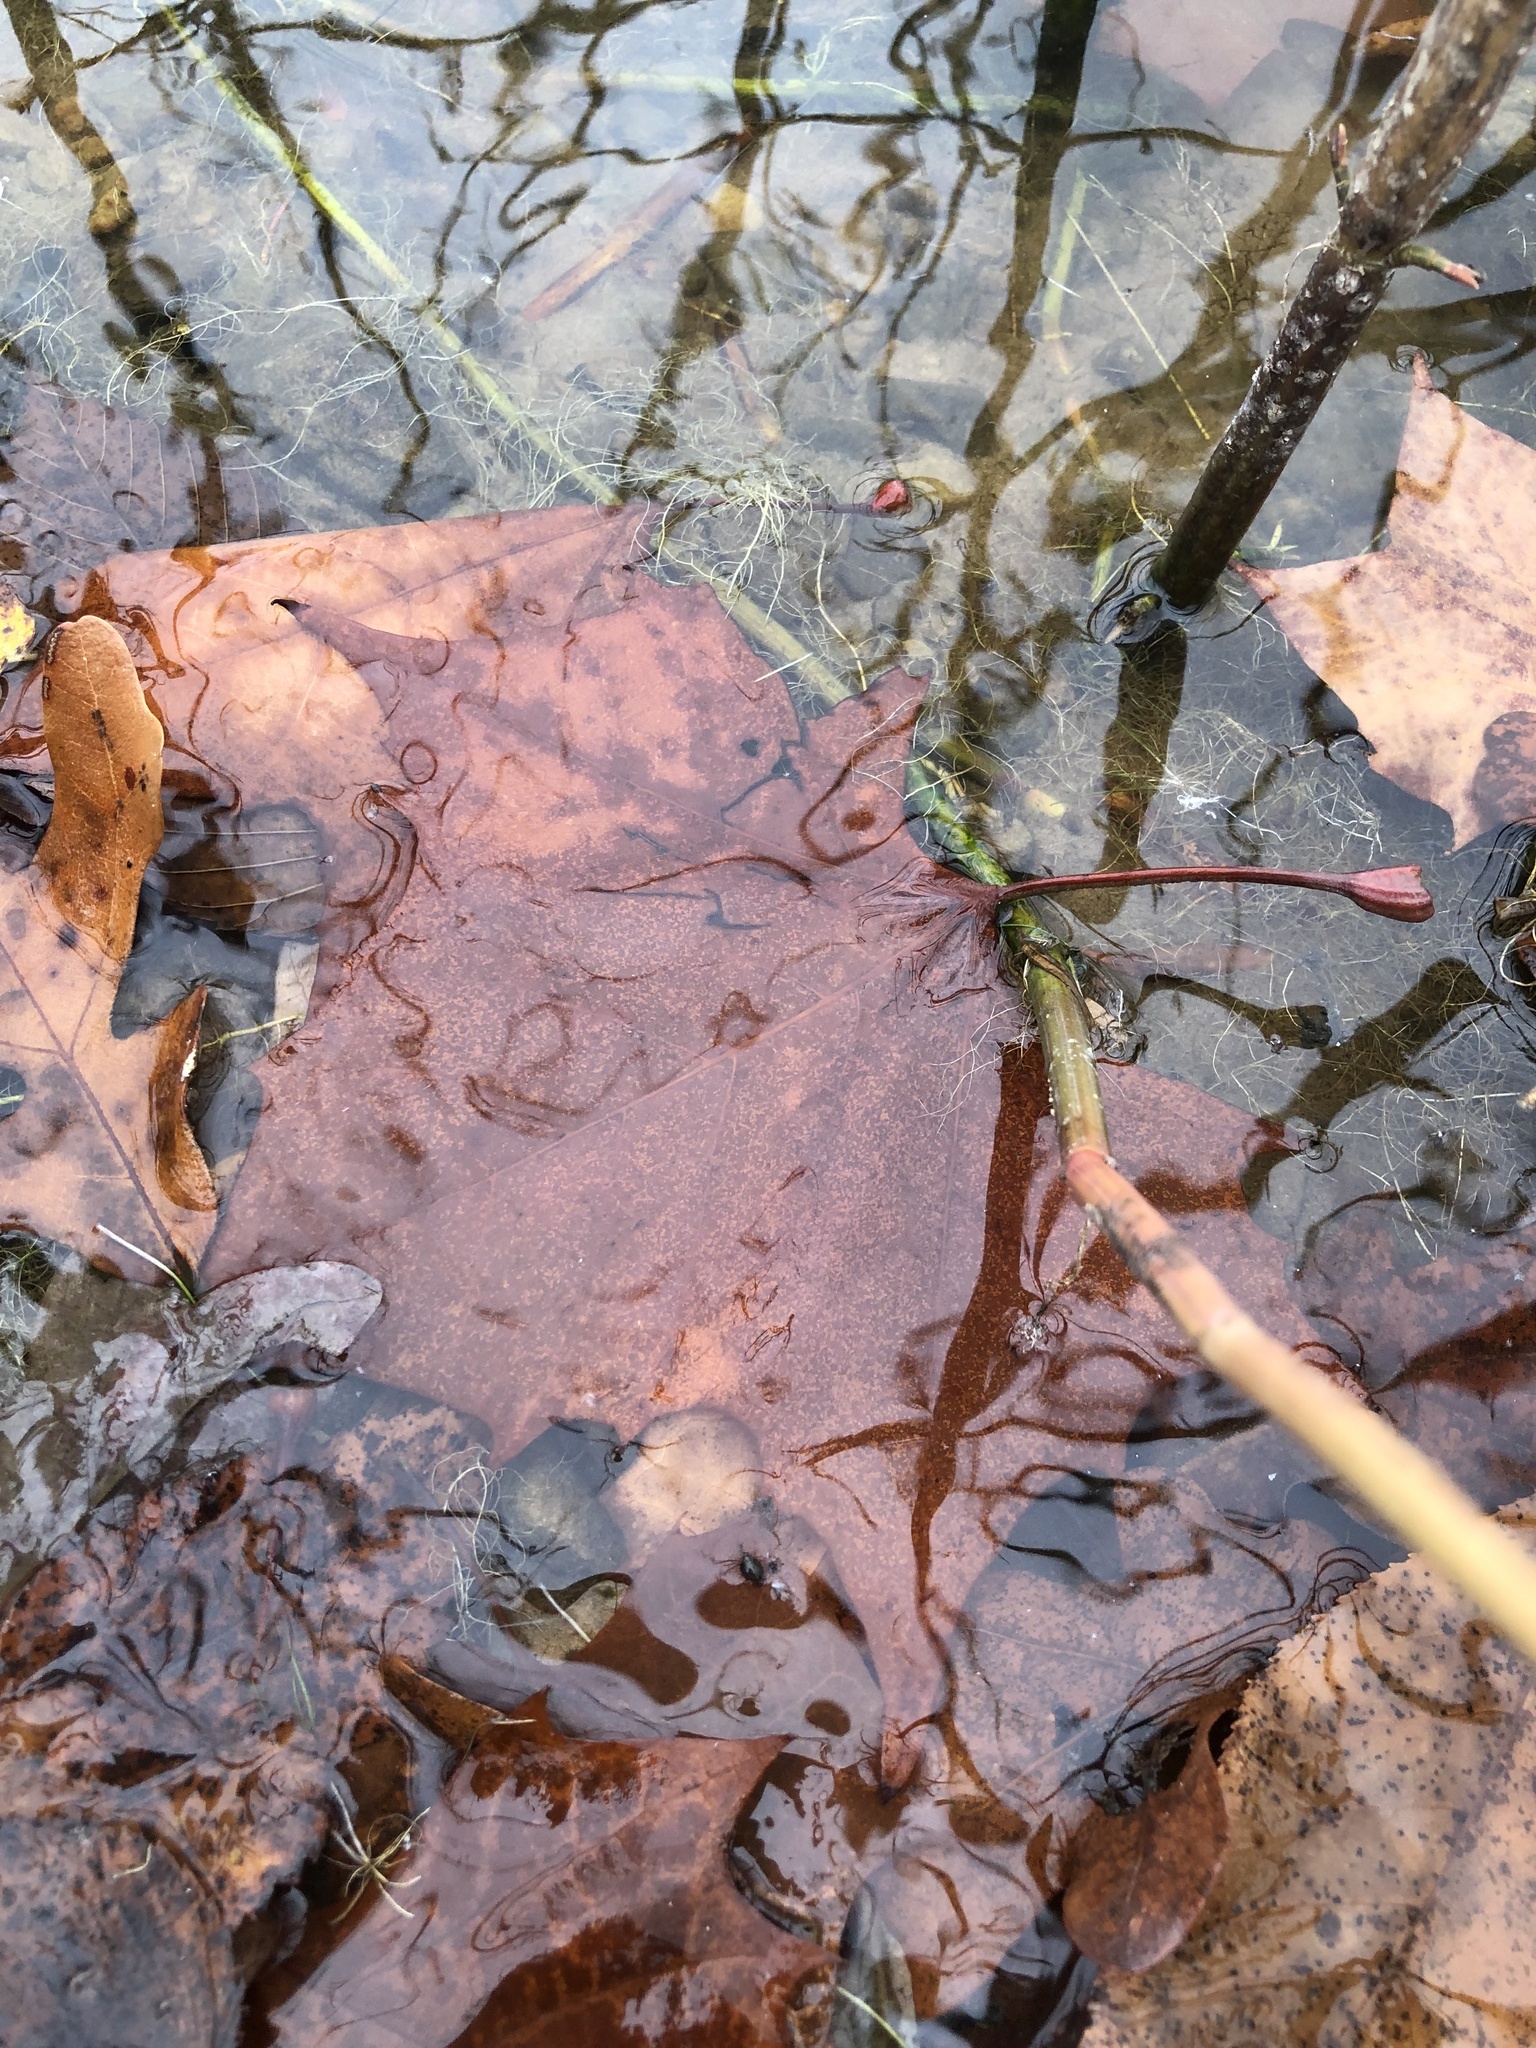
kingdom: Plantae
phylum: Tracheophyta
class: Magnoliopsida
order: Proteales
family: Platanaceae
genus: Platanus
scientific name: Platanus occidentalis
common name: American sycamore
